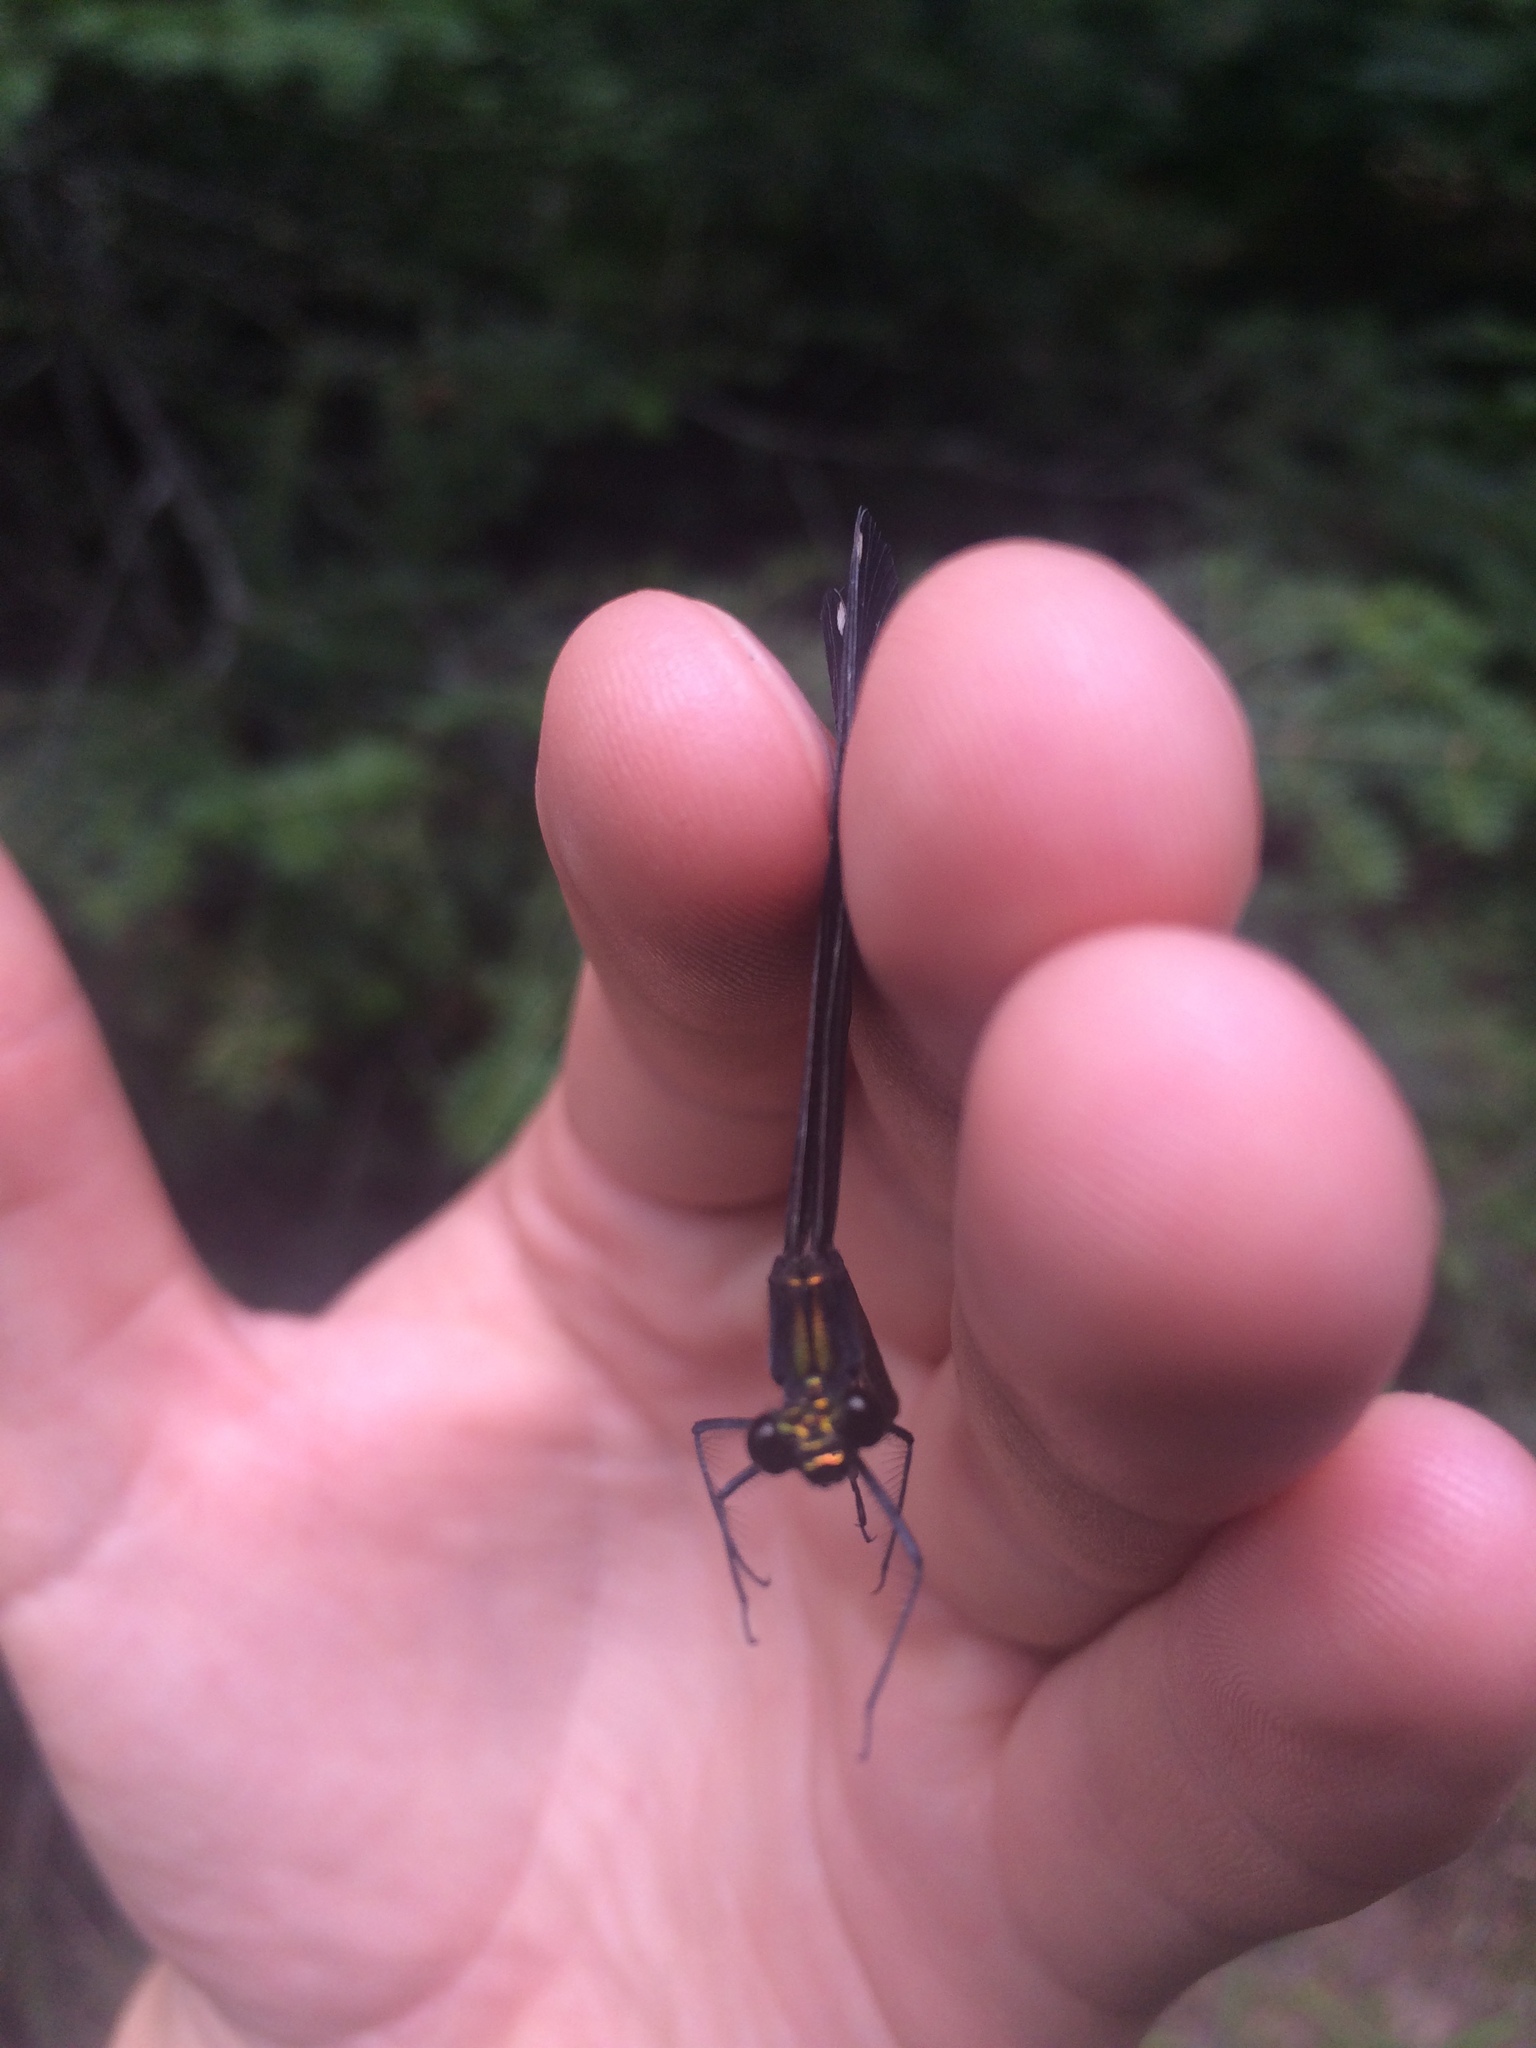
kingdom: Animalia
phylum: Arthropoda
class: Insecta
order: Odonata
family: Calopterygidae
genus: Calopteryx
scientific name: Calopteryx maculata
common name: Ebony jewelwing
